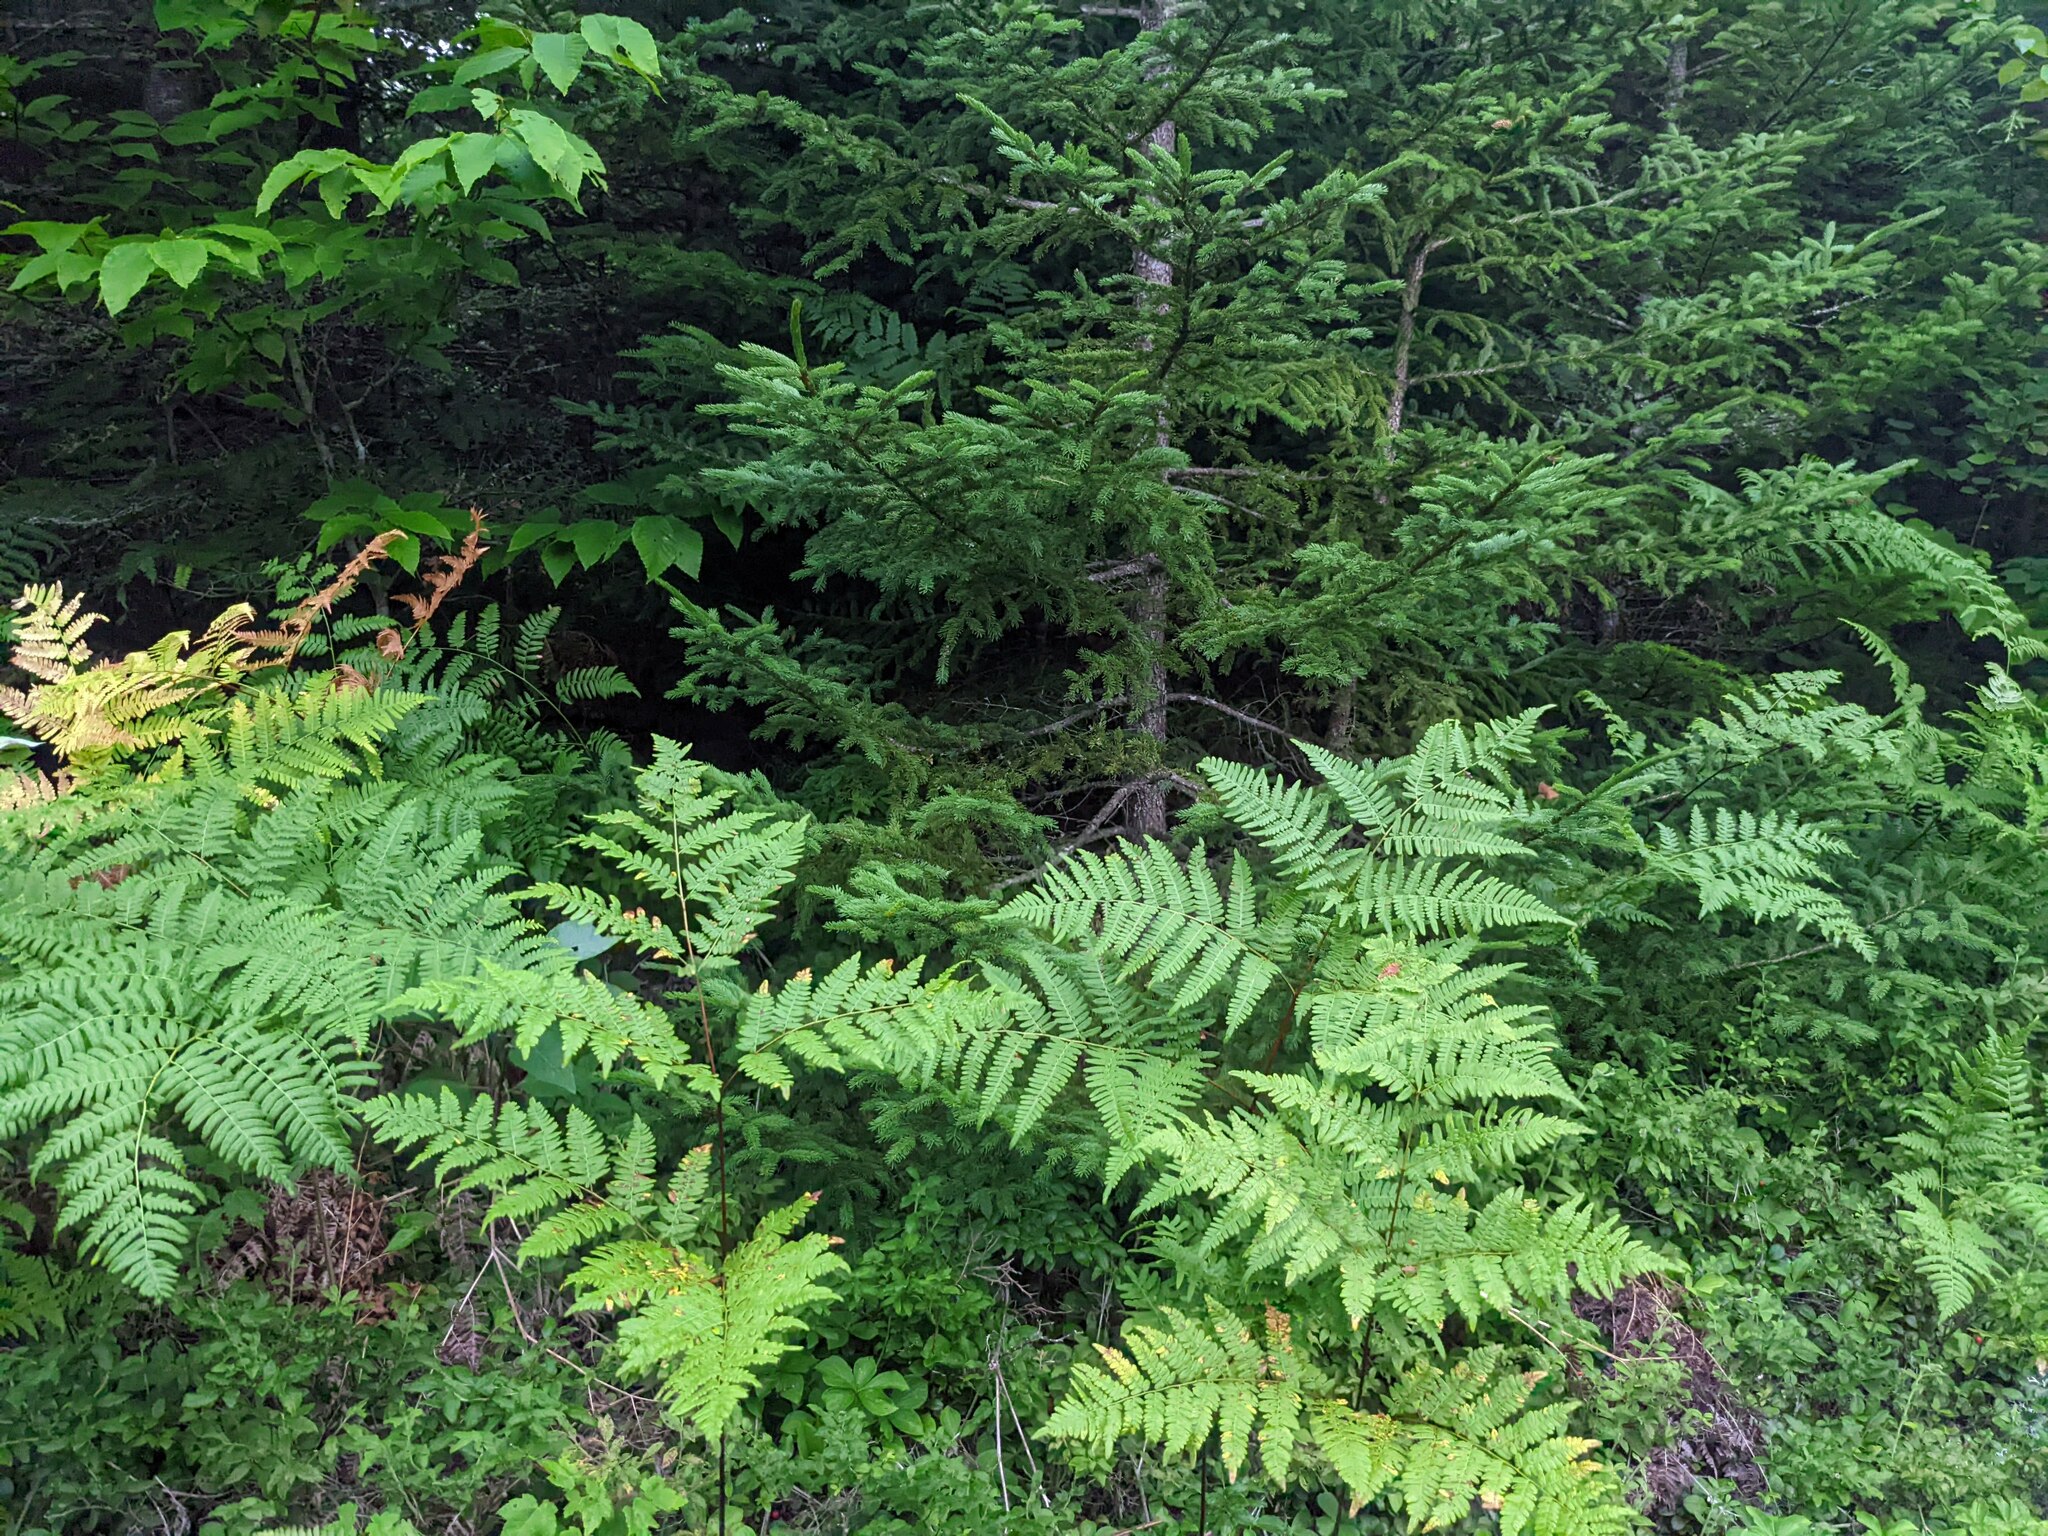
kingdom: Plantae
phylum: Tracheophyta
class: Polypodiopsida
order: Polypodiales
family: Dennstaedtiaceae
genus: Pteridium
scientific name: Pteridium aquilinum
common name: Bracken
